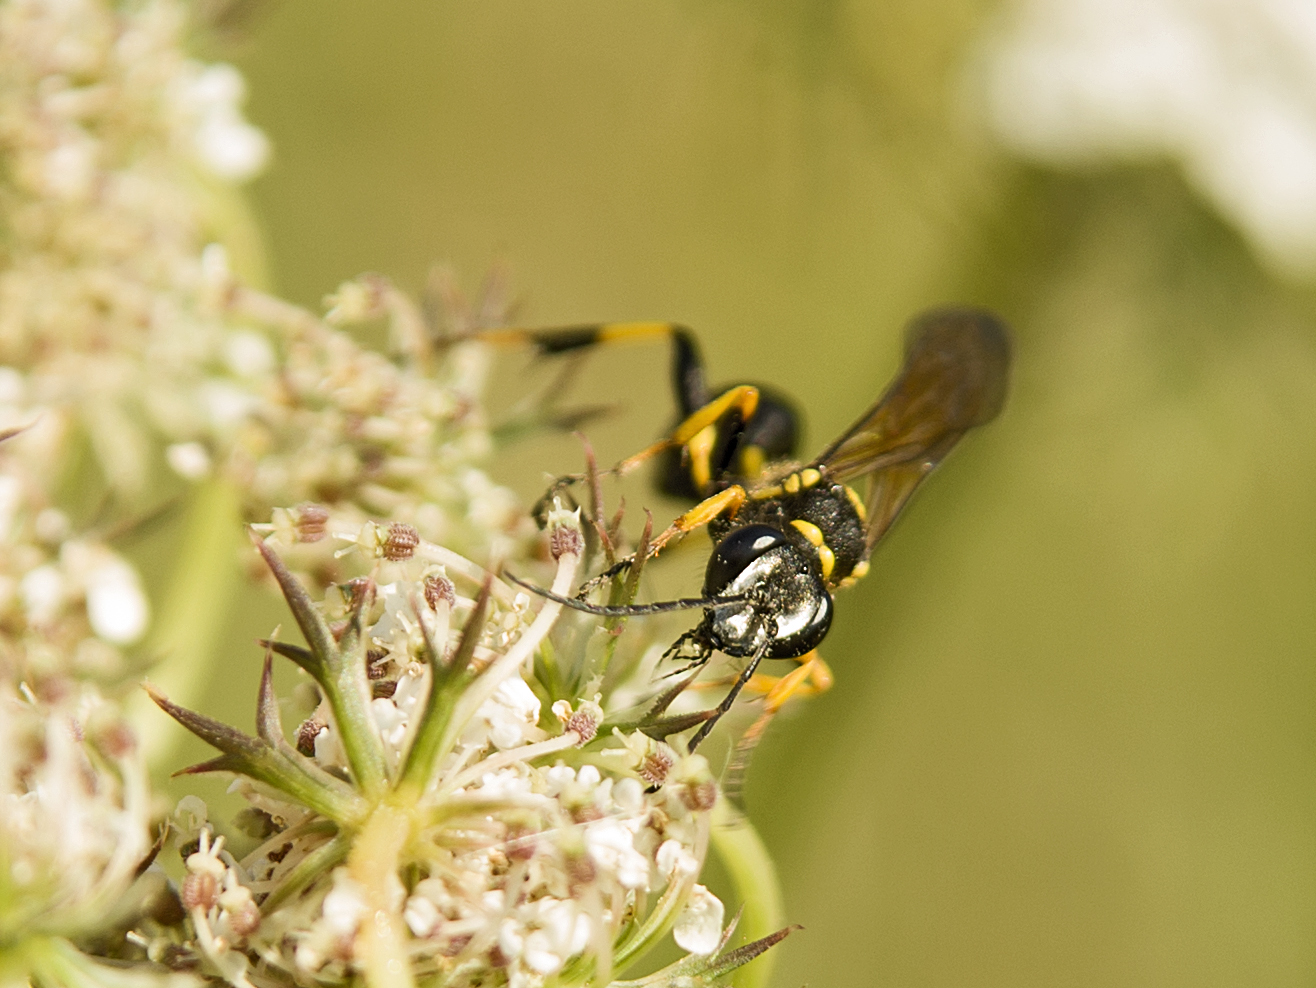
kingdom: Animalia
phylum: Arthropoda
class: Insecta
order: Hymenoptera
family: Sphecidae
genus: Sceliphron
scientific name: Sceliphron madraspatanum
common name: Mud dauber
